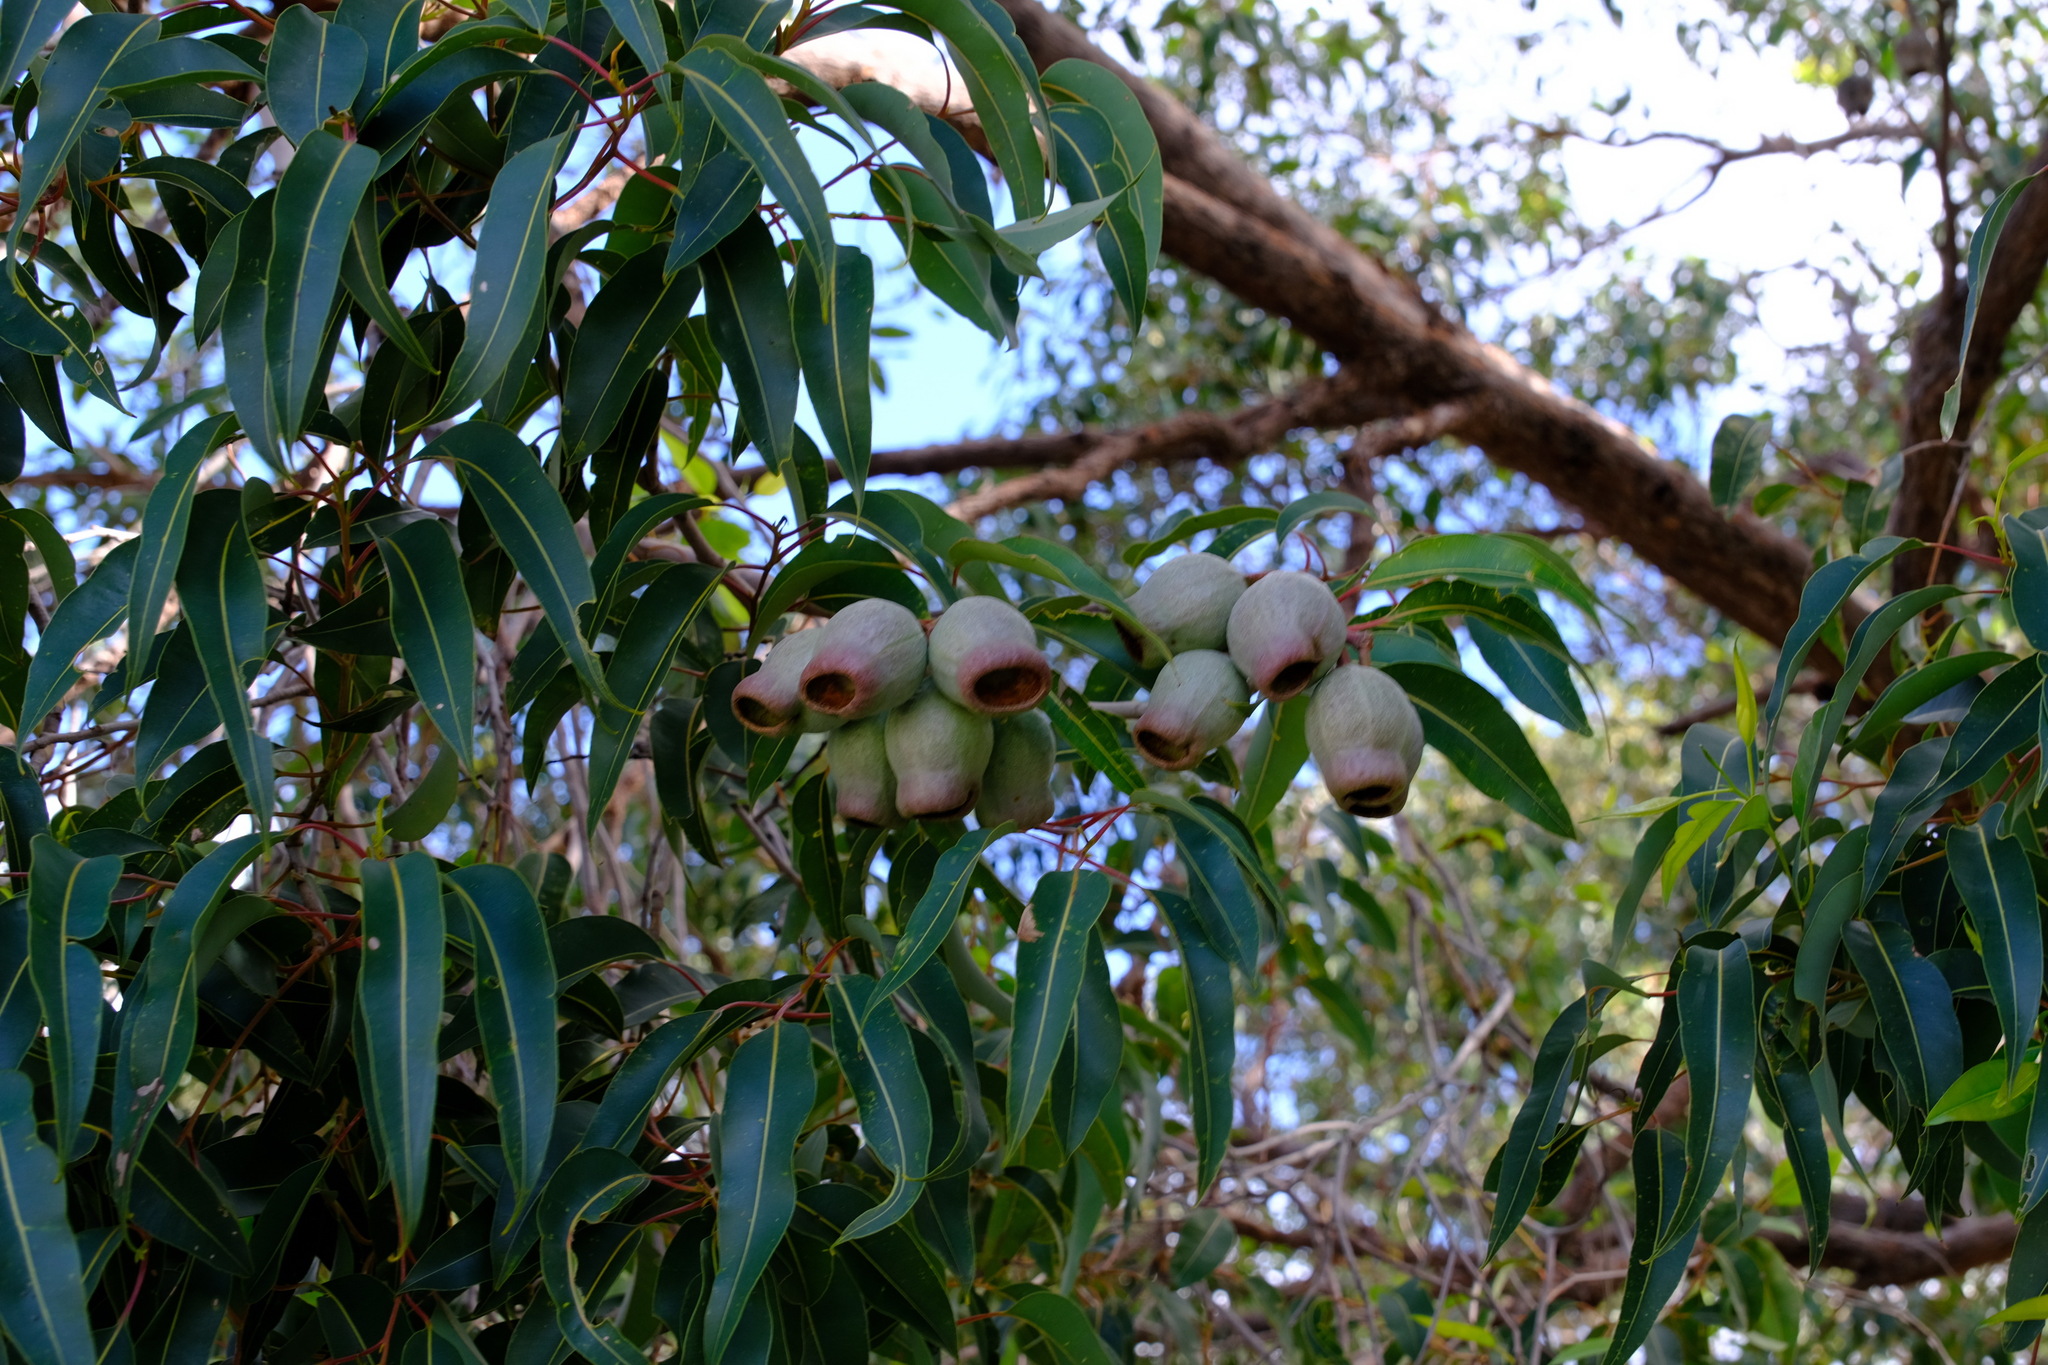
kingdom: Plantae
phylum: Tracheophyta
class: Magnoliopsida
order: Myrtales
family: Myrtaceae
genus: Corymbia
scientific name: Corymbia calophylla
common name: Marri
